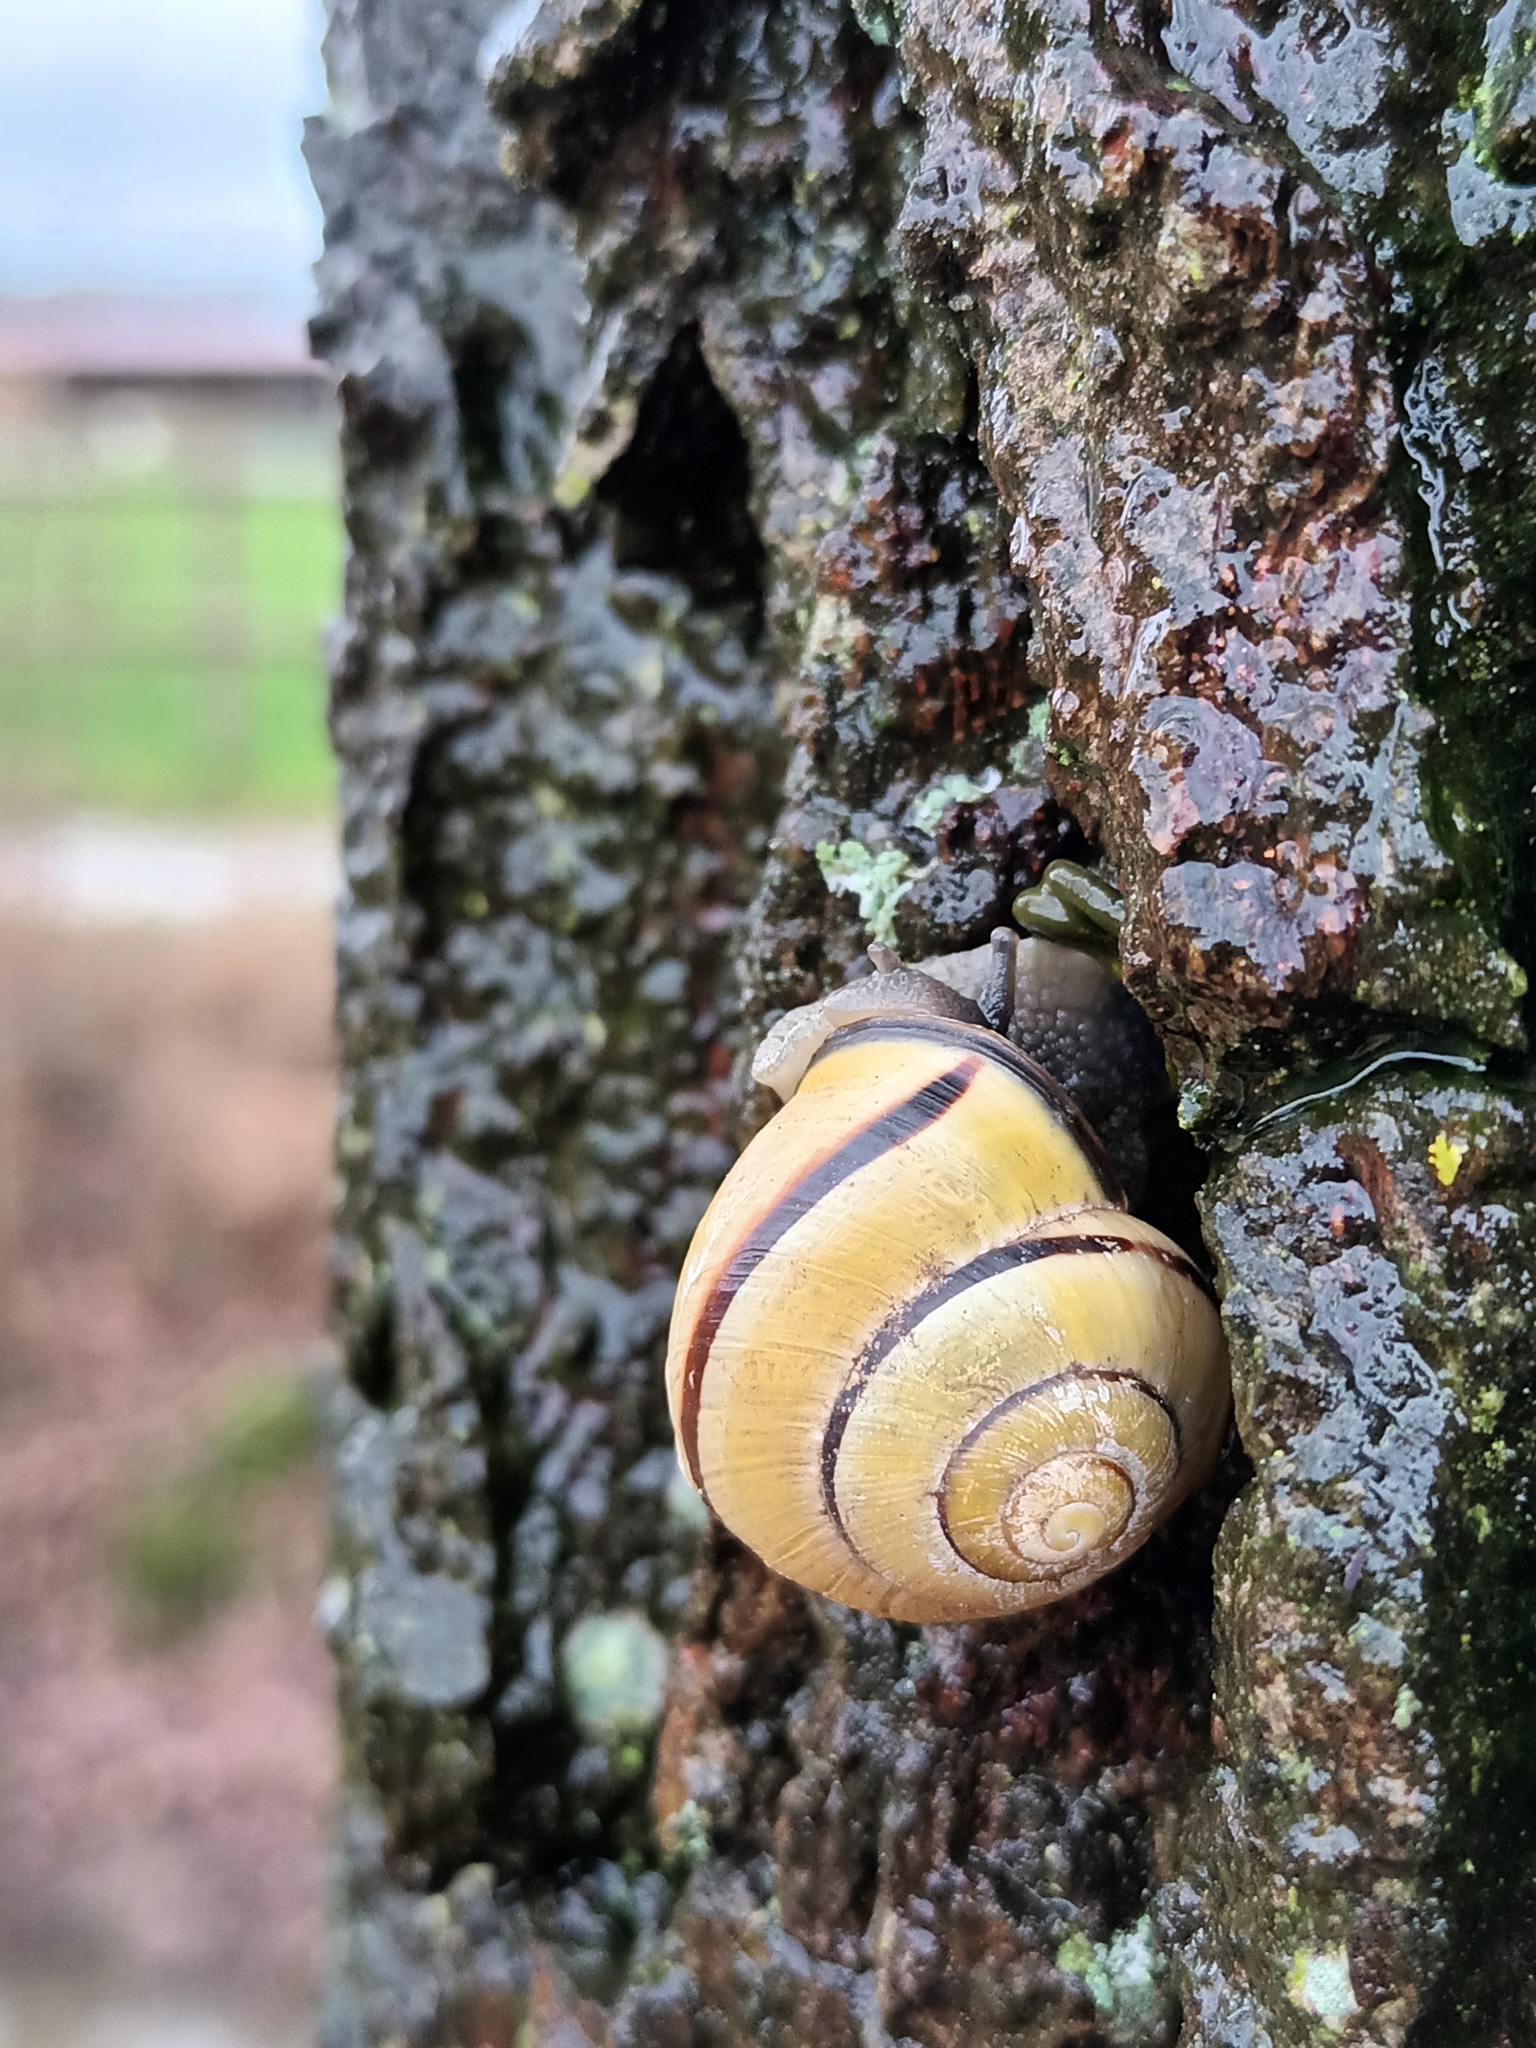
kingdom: Animalia
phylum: Mollusca
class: Gastropoda
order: Stylommatophora
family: Helicidae
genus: Cepaea
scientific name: Cepaea nemoralis
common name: Grovesnail
